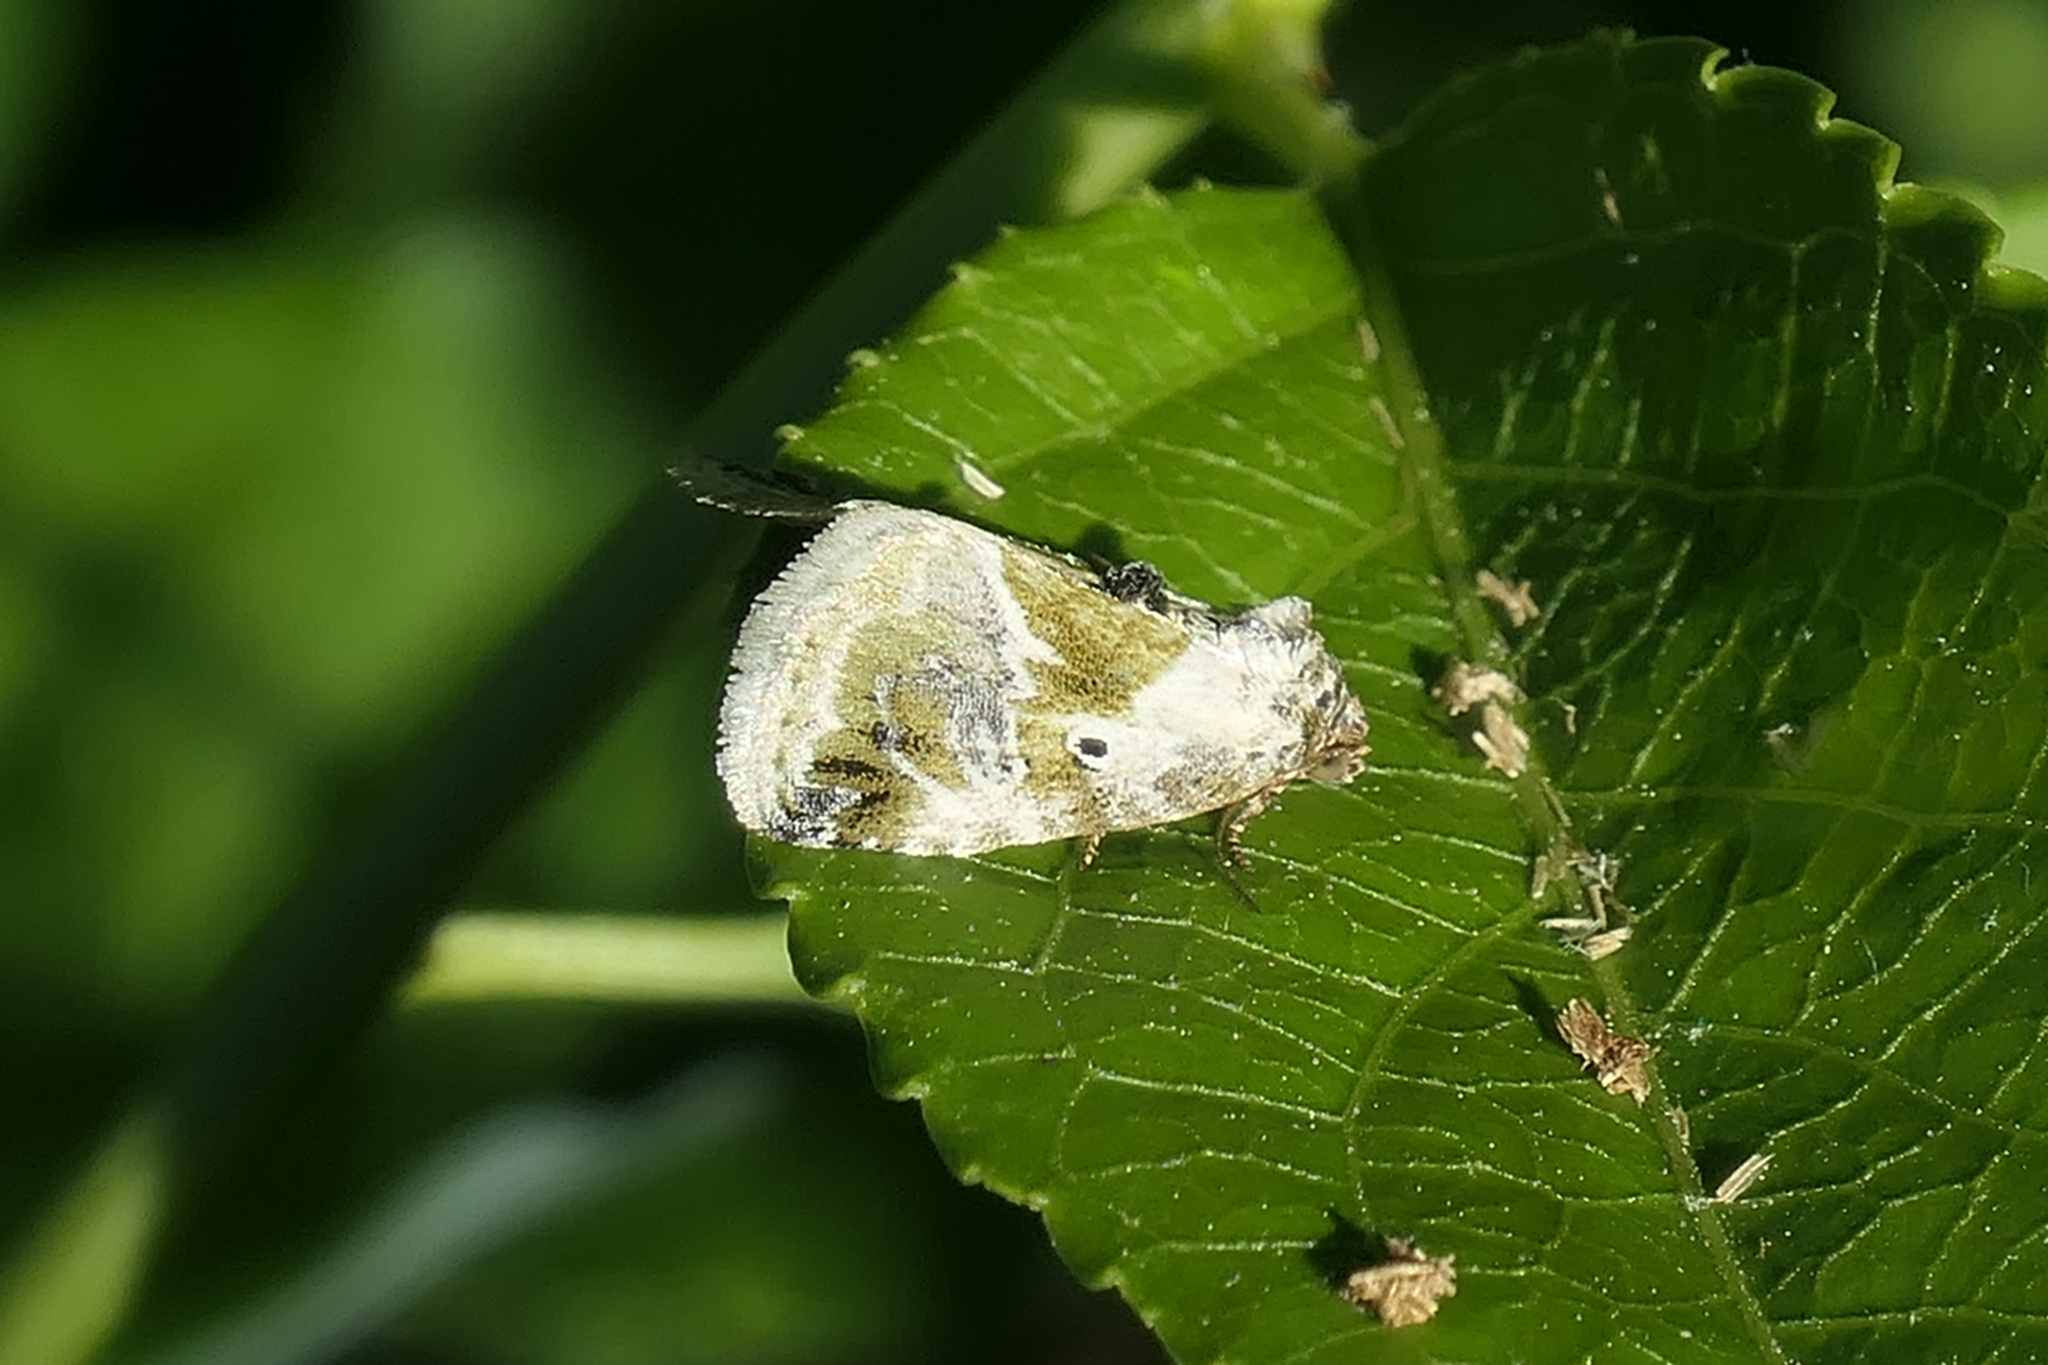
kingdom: Animalia
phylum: Arthropoda
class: Insecta
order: Lepidoptera
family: Noctuidae
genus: Maliattha
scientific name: Maliattha synochitis
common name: Black-dotted glyph
